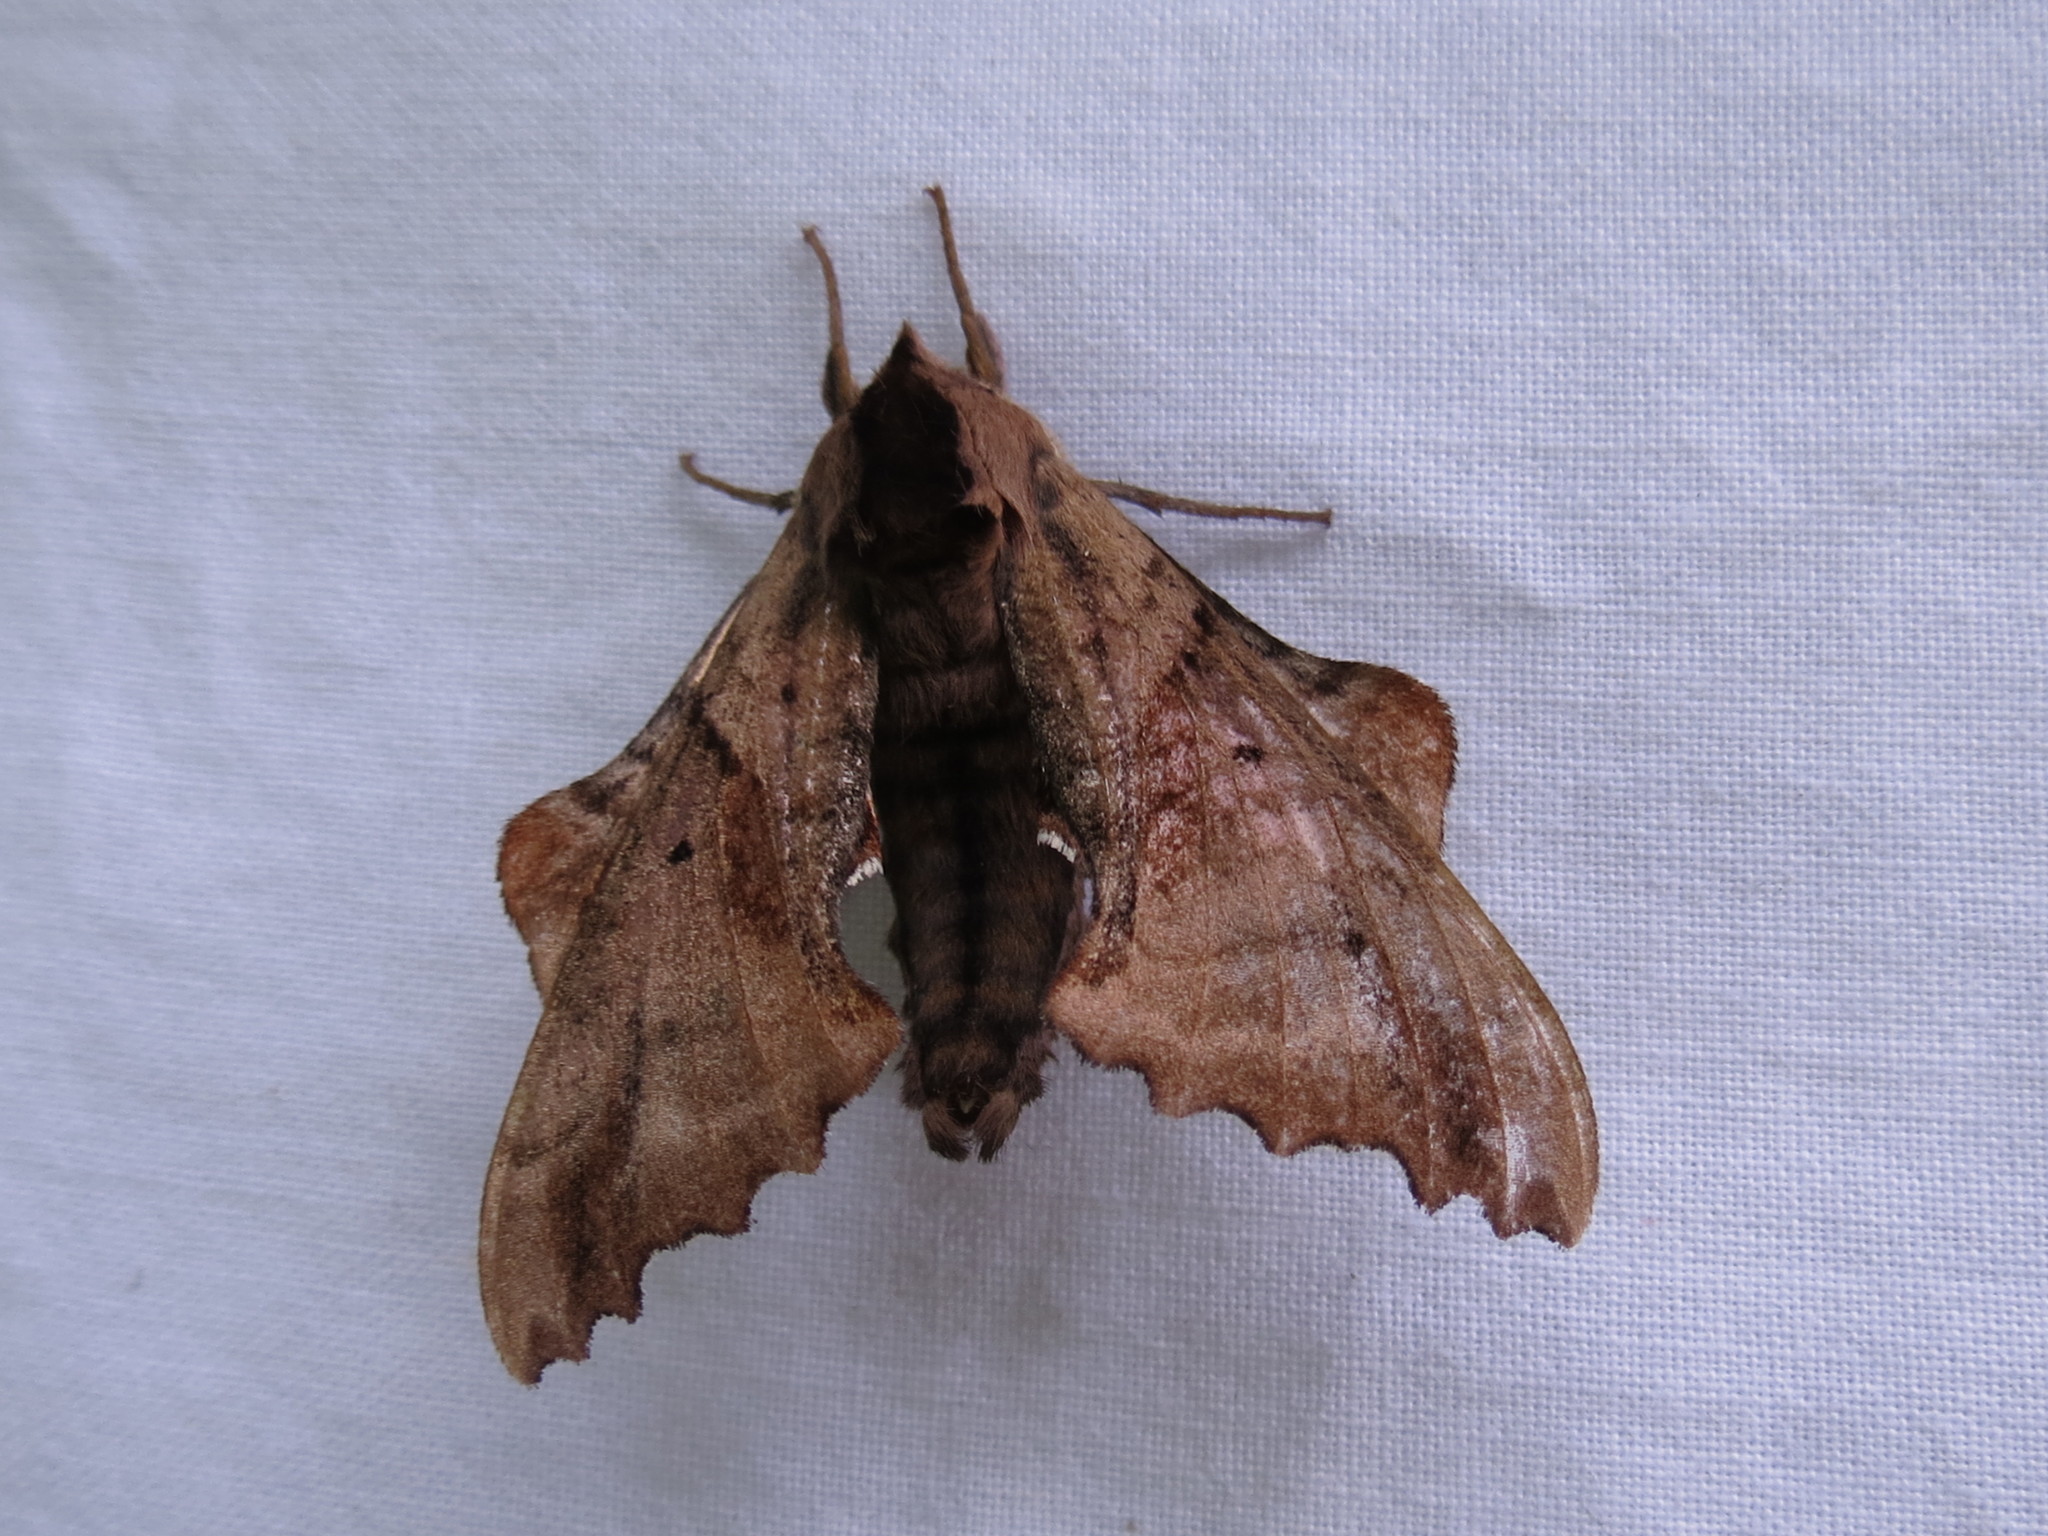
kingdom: Animalia
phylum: Arthropoda
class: Insecta
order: Lepidoptera
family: Sphingidae
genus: Paonias
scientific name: Paonias excaecata
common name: Blind-eyed sphinx
